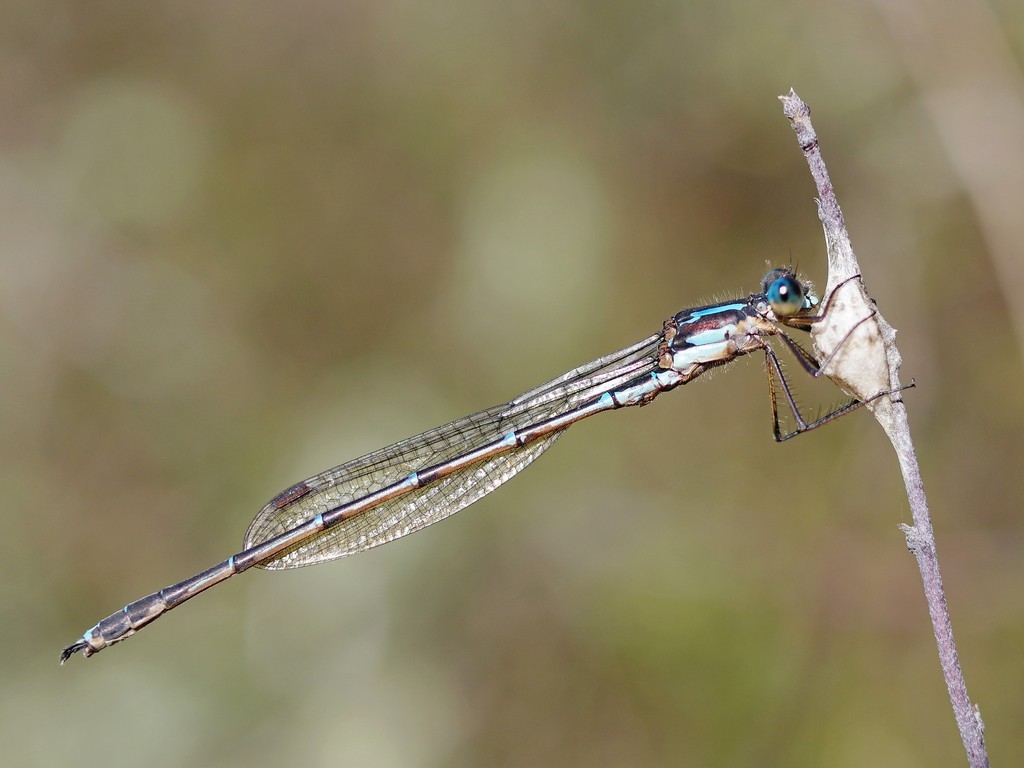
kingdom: Animalia
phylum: Arthropoda
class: Insecta
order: Odonata
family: Lestidae
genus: Austrolestes
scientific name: Austrolestes colensonis
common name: Blue damselfly
